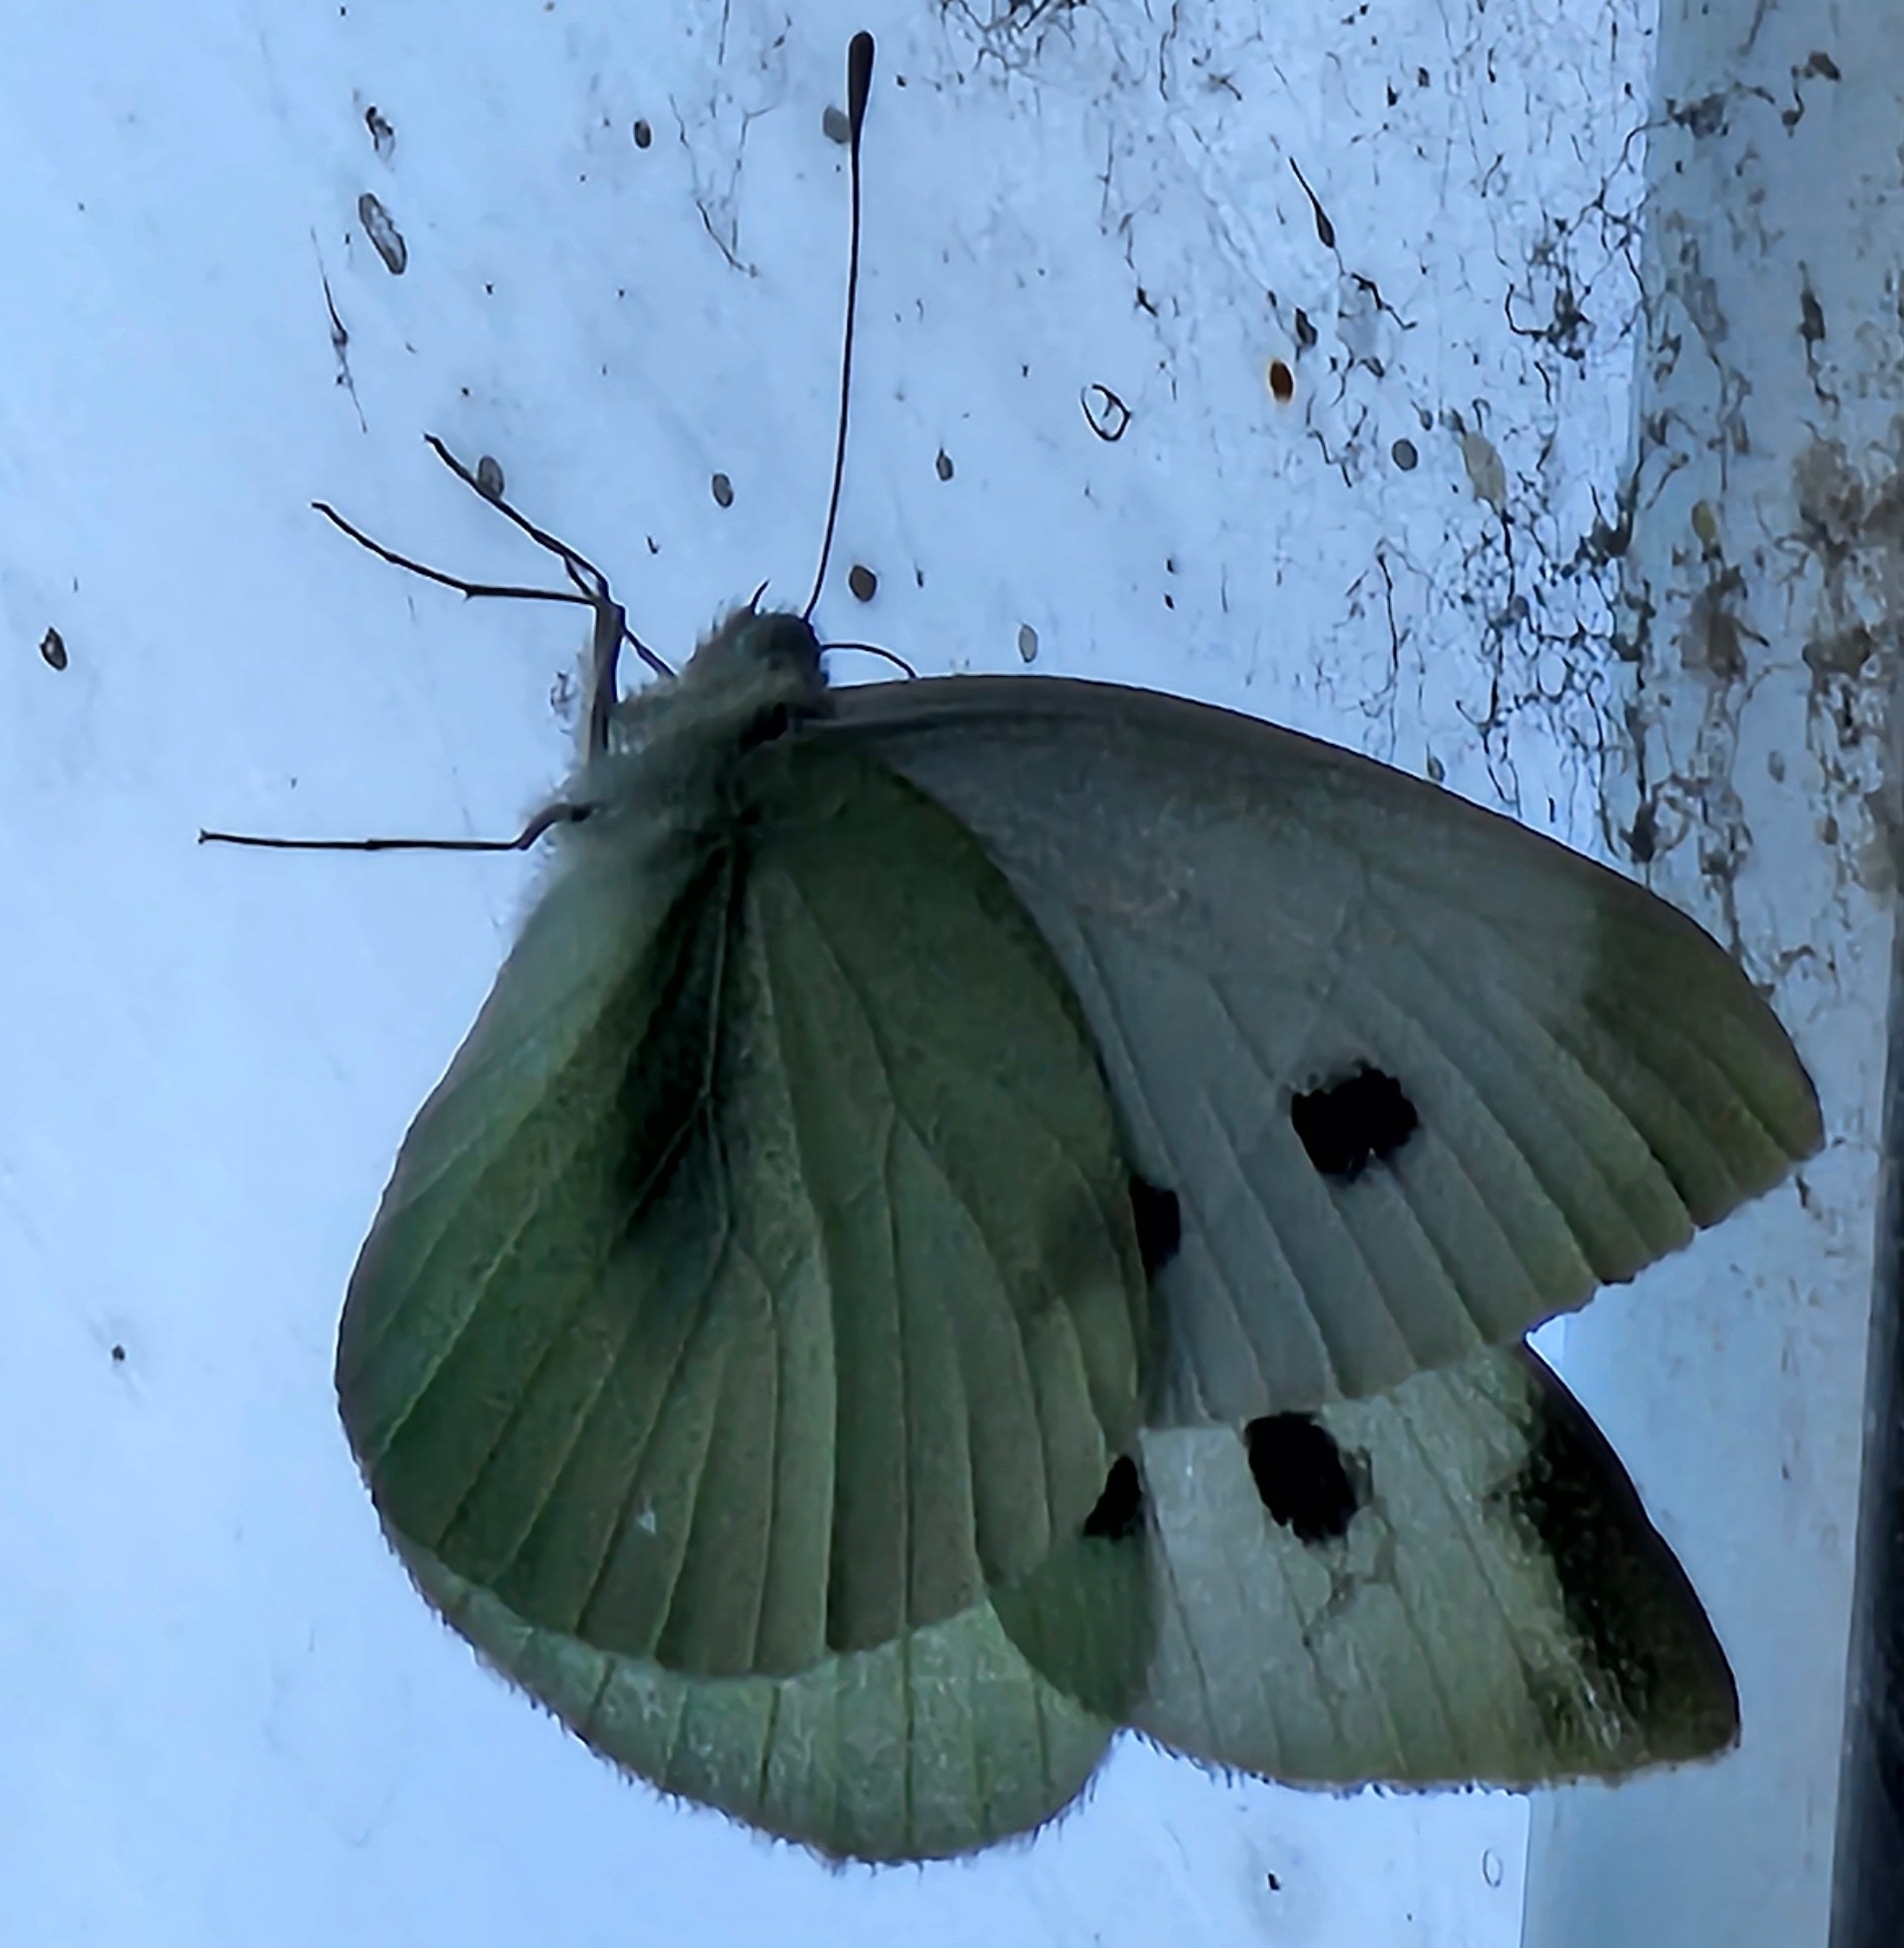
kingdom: Animalia
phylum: Arthropoda
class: Insecta
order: Lepidoptera
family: Pieridae
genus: Pieris
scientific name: Pieris rapae
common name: Small white
